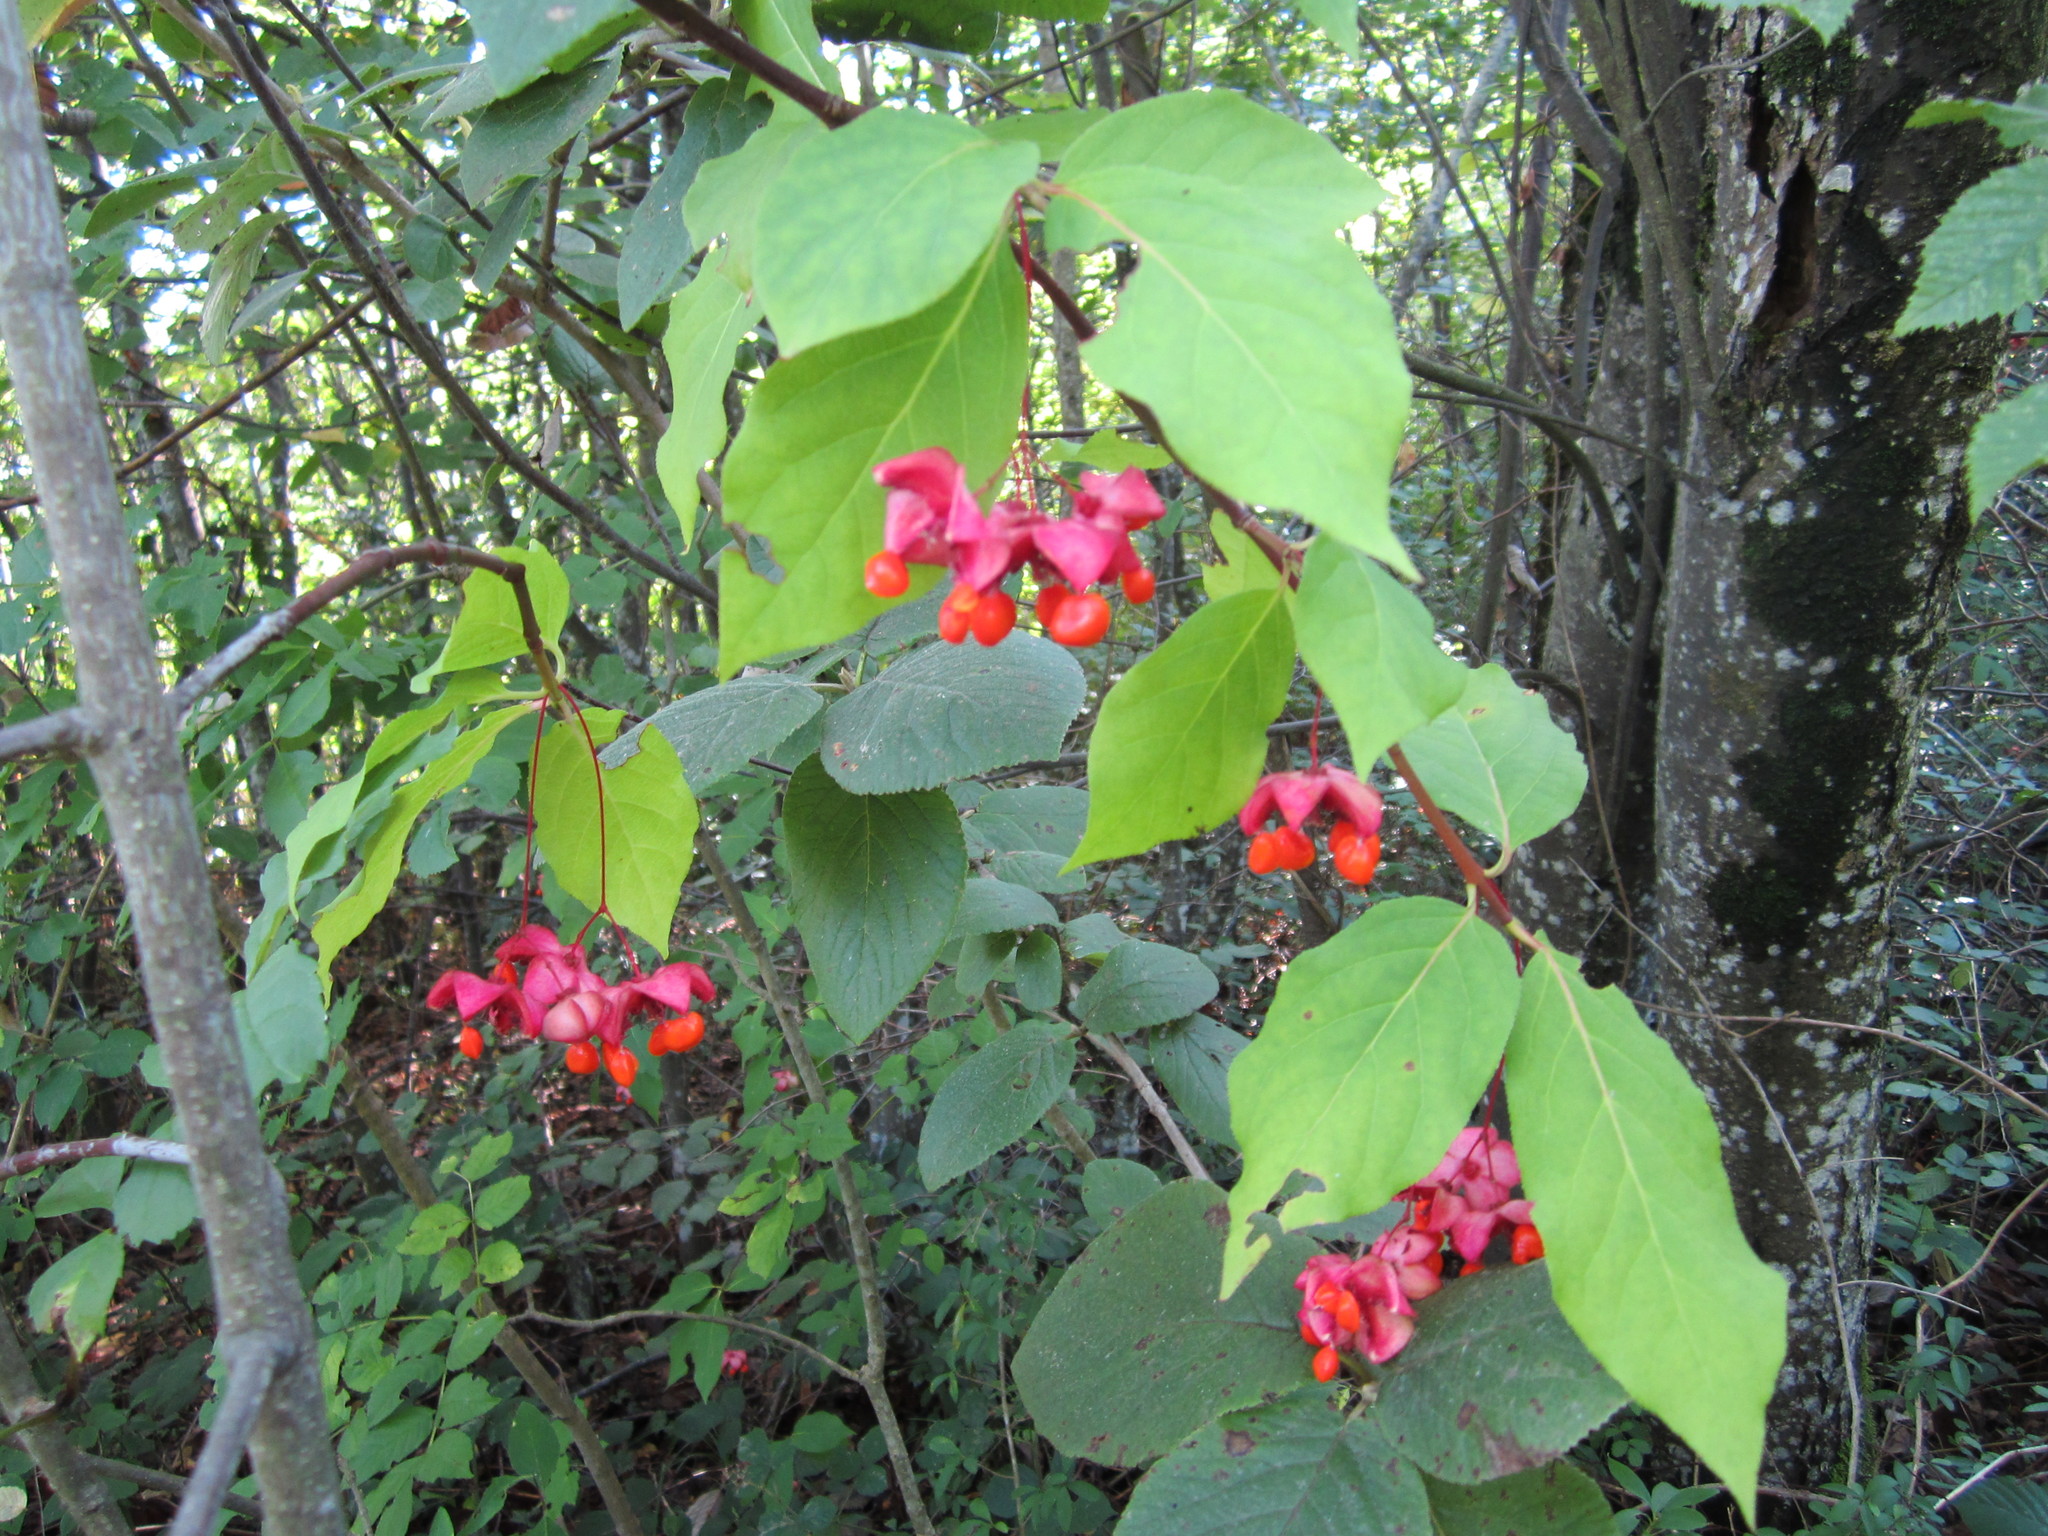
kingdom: Plantae
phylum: Tracheophyta
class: Magnoliopsida
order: Celastrales
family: Celastraceae
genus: Euonymus
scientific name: Euonymus latifolius
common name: Large-leaved spindle
